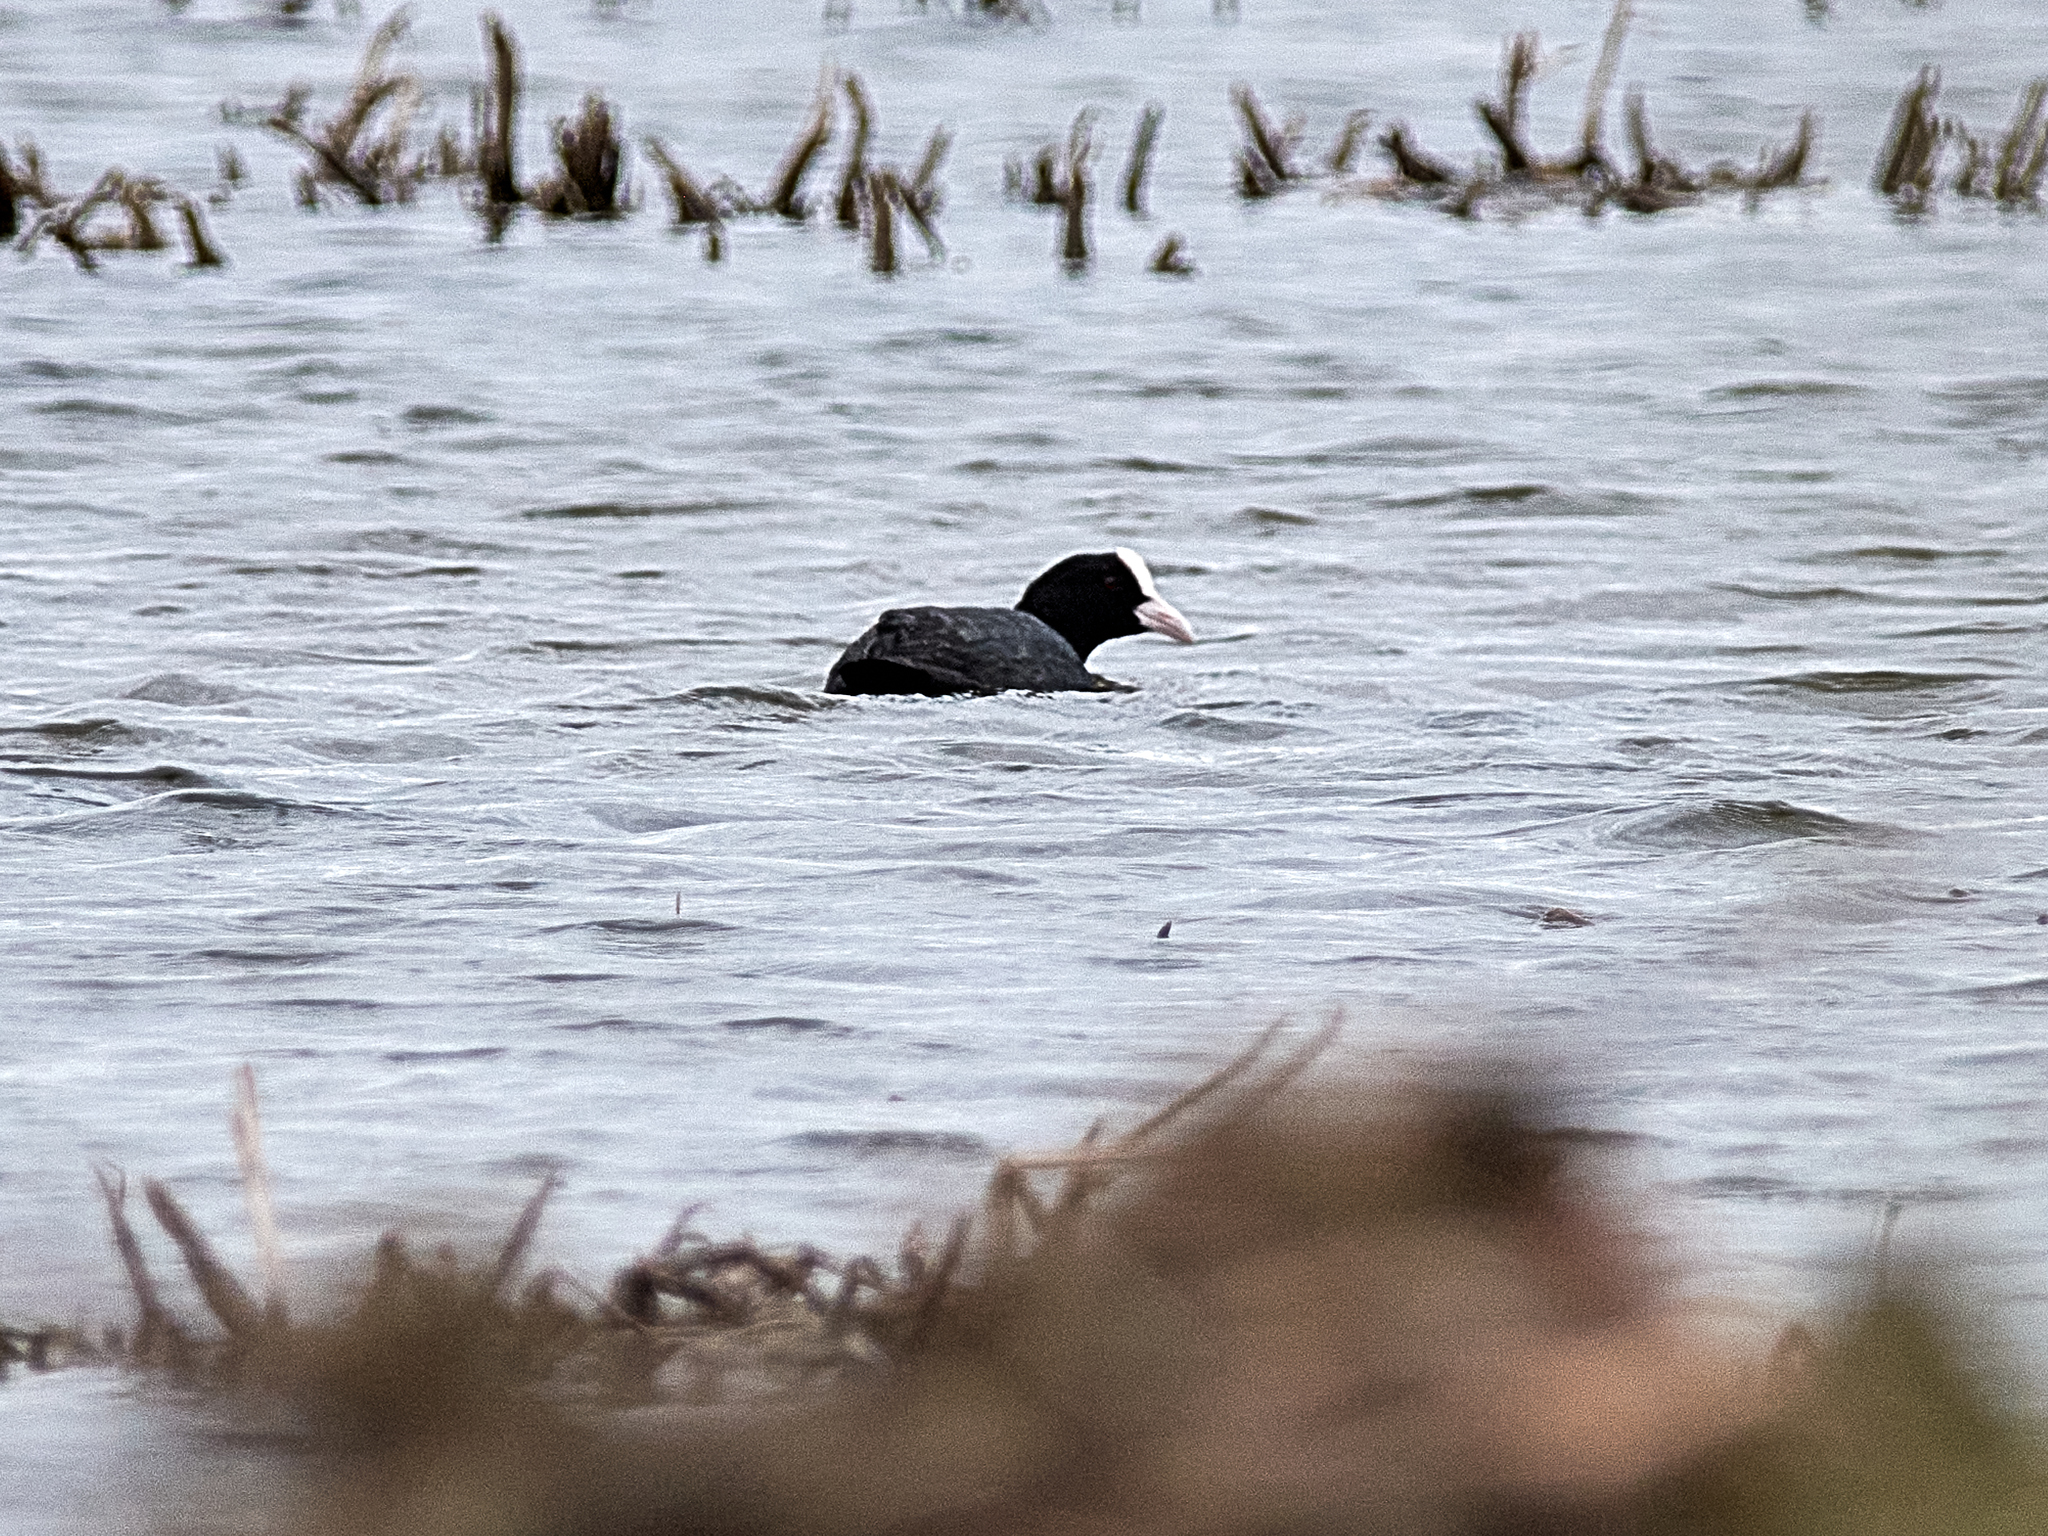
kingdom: Animalia
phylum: Chordata
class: Aves
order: Gruiformes
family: Rallidae
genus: Fulica
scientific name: Fulica atra
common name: Eurasian coot
